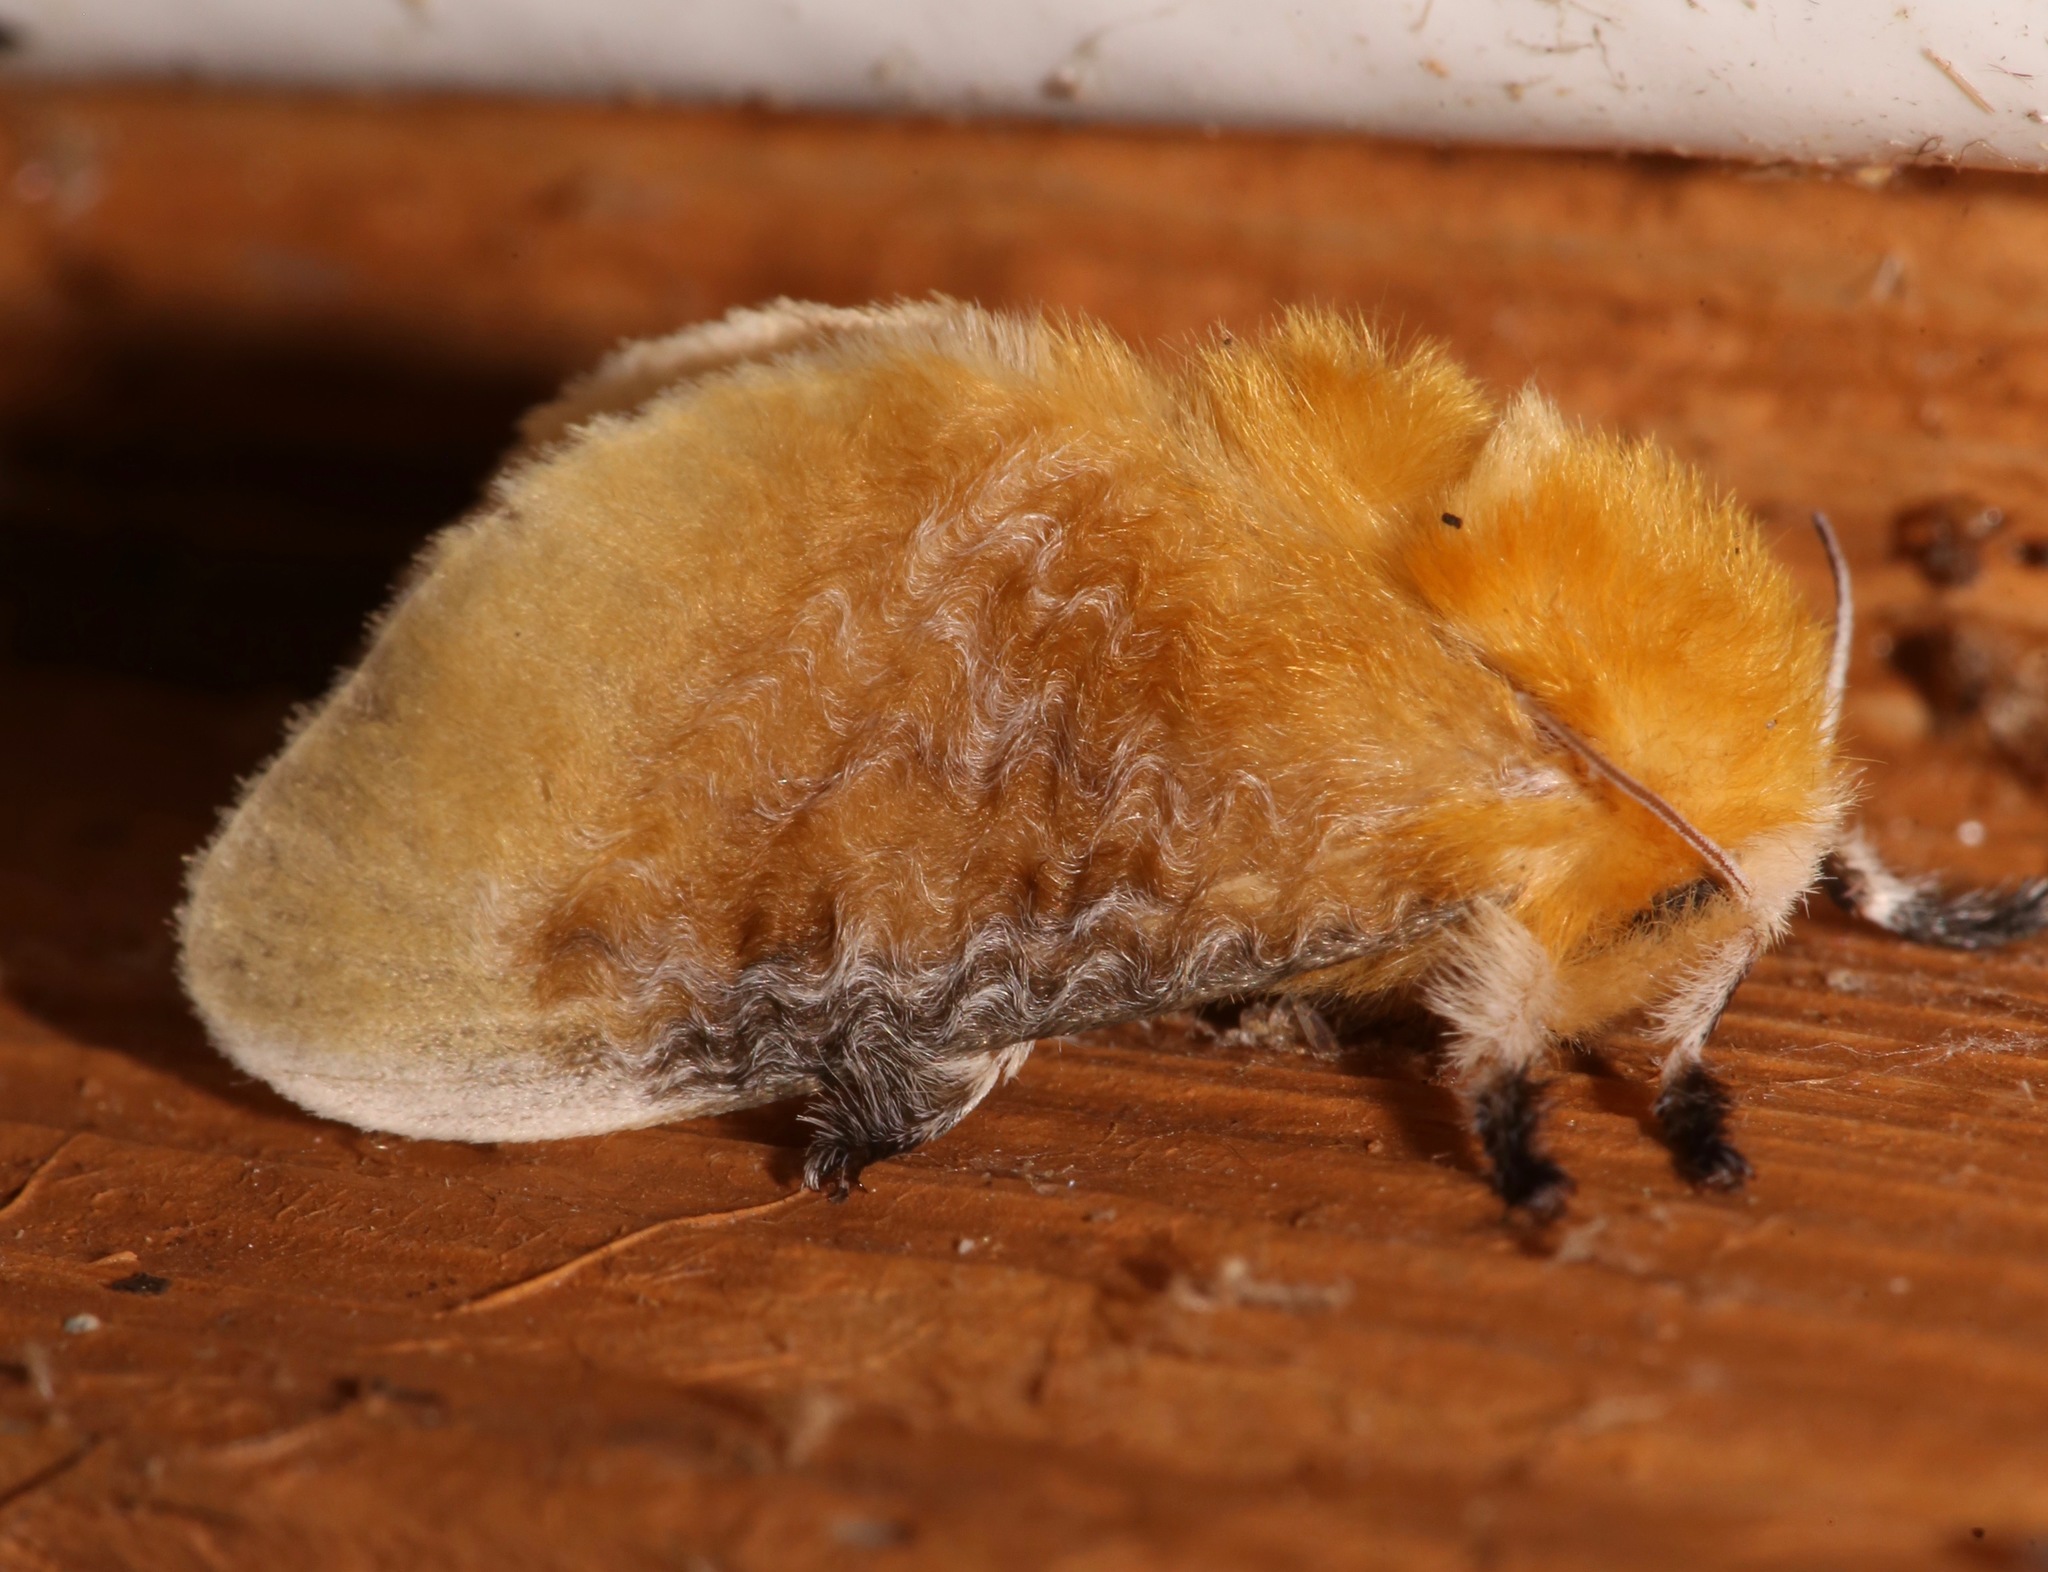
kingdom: Animalia
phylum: Arthropoda
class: Insecta
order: Lepidoptera
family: Megalopygidae
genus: Megalopyge
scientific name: Megalopyge opercularis
